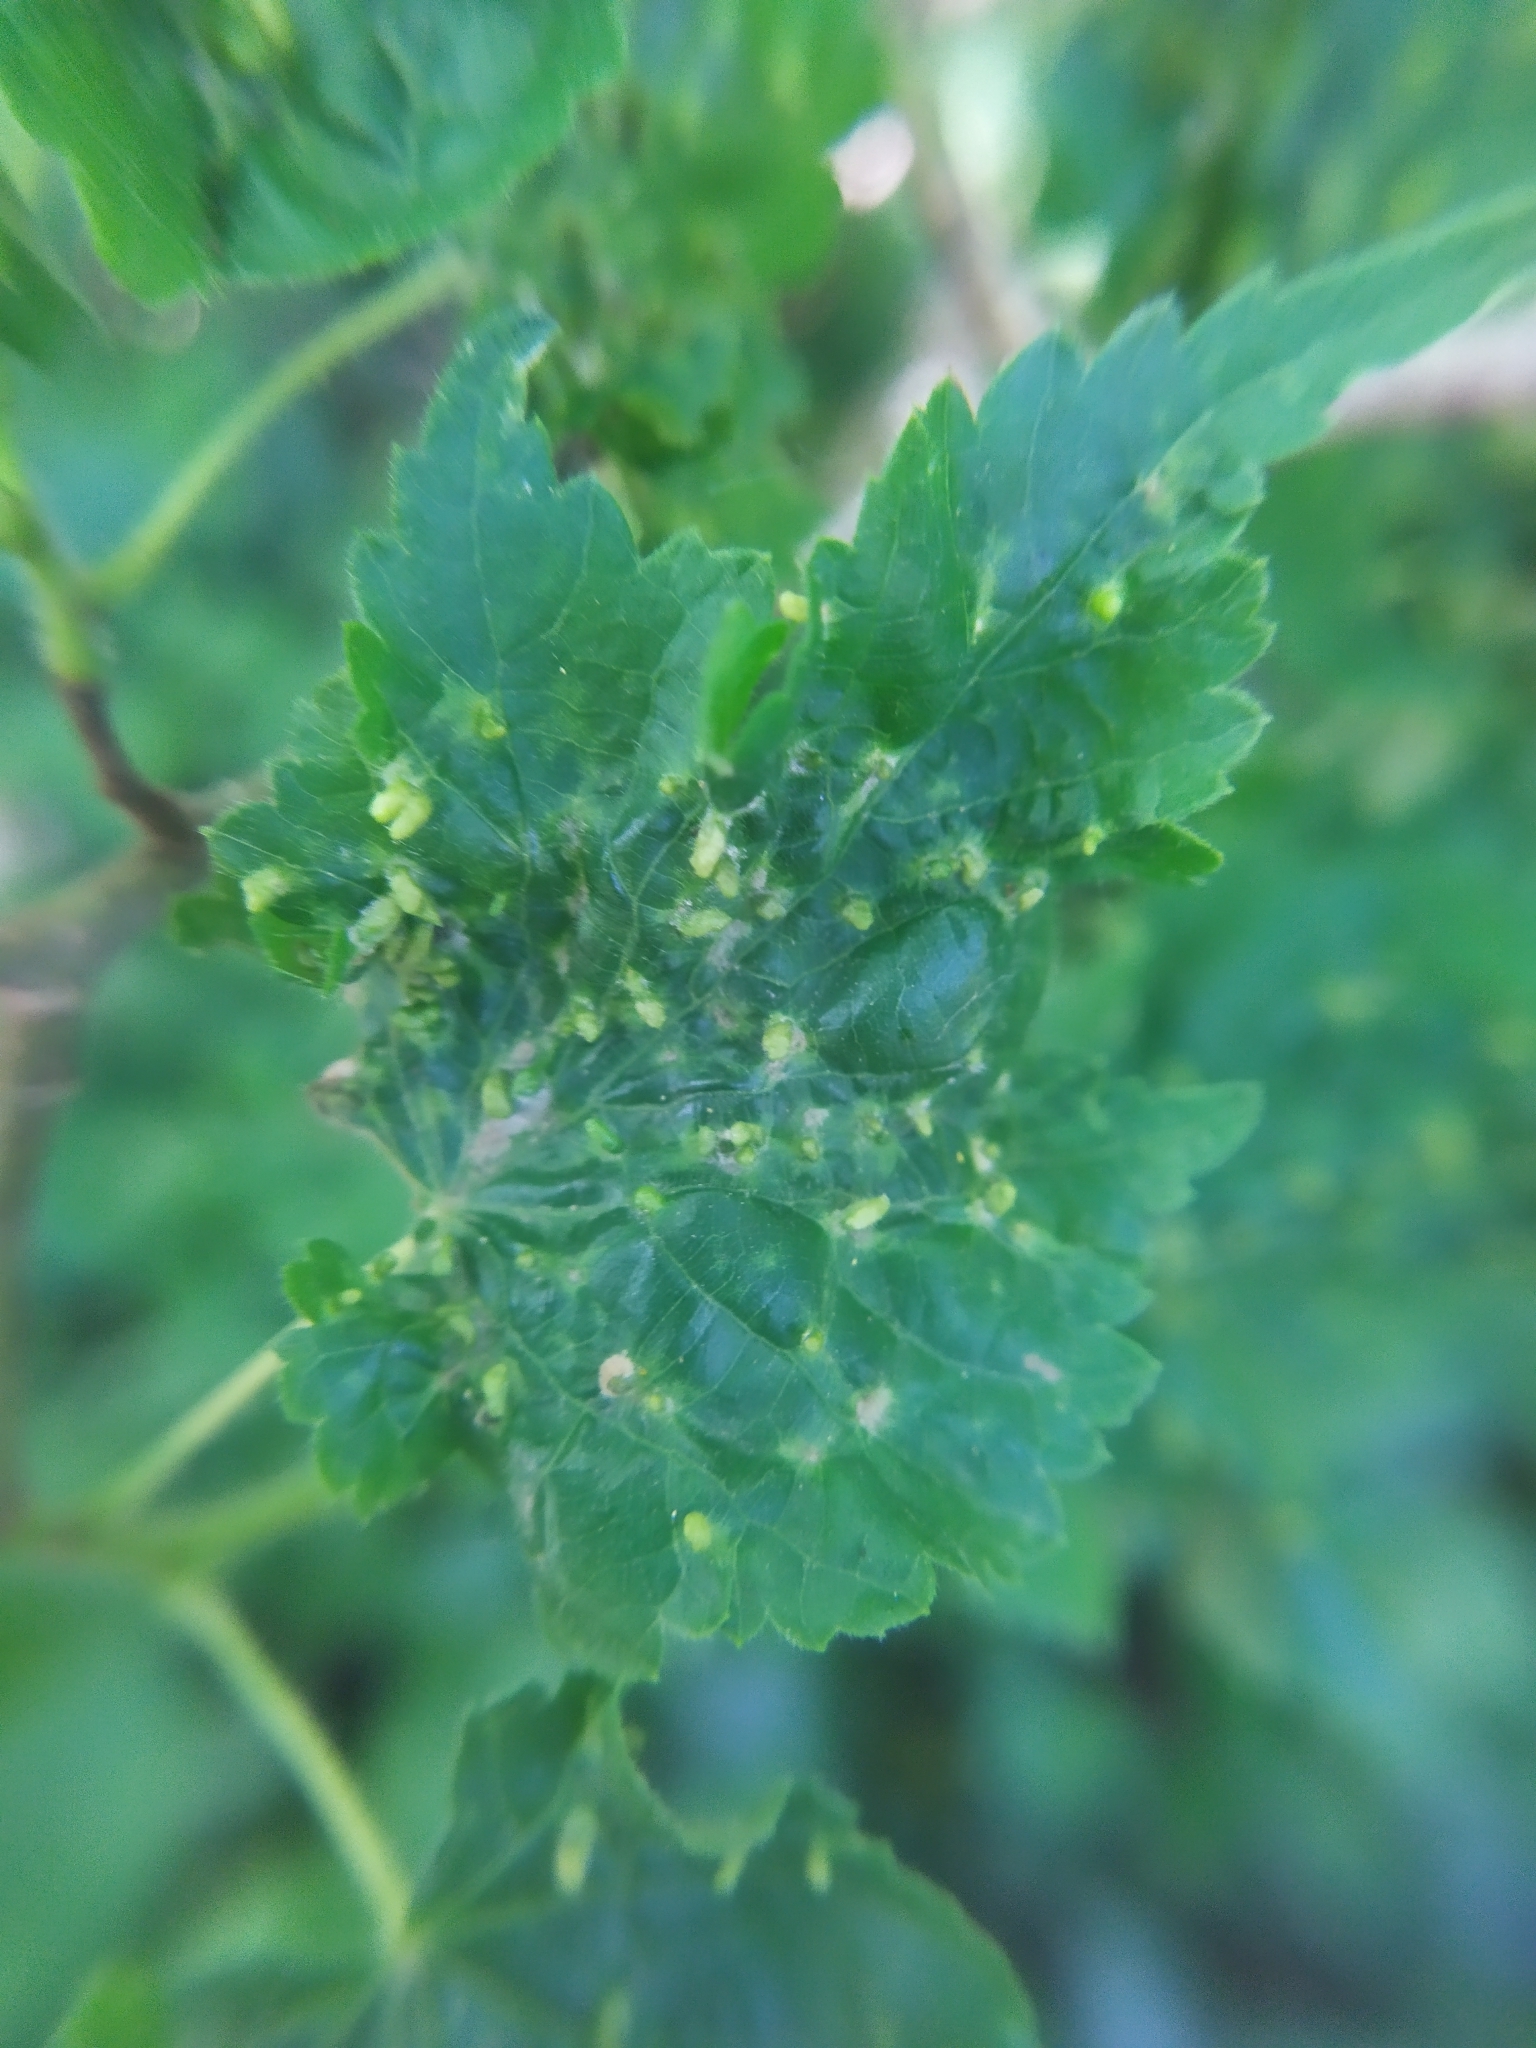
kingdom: Animalia
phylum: Arthropoda
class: Arachnida
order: Trombidiformes
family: Eriophyidae
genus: Aceria
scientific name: Aceria brevipunctata
